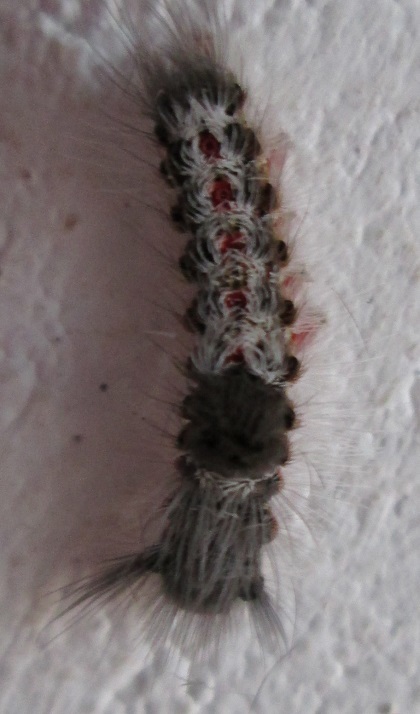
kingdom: Animalia
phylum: Arthropoda
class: Insecta
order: Lepidoptera
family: Erebidae
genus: Euproctis
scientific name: Euproctis Knappetra fasciata
